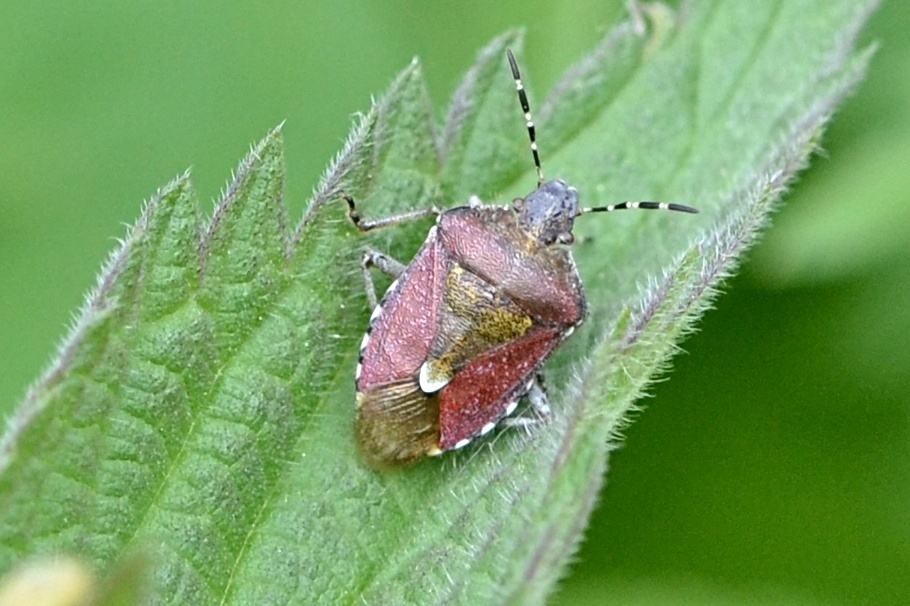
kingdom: Animalia
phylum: Arthropoda
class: Insecta
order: Hemiptera
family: Pentatomidae
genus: Dolycoris
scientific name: Dolycoris baccarum
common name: Sloe bug
